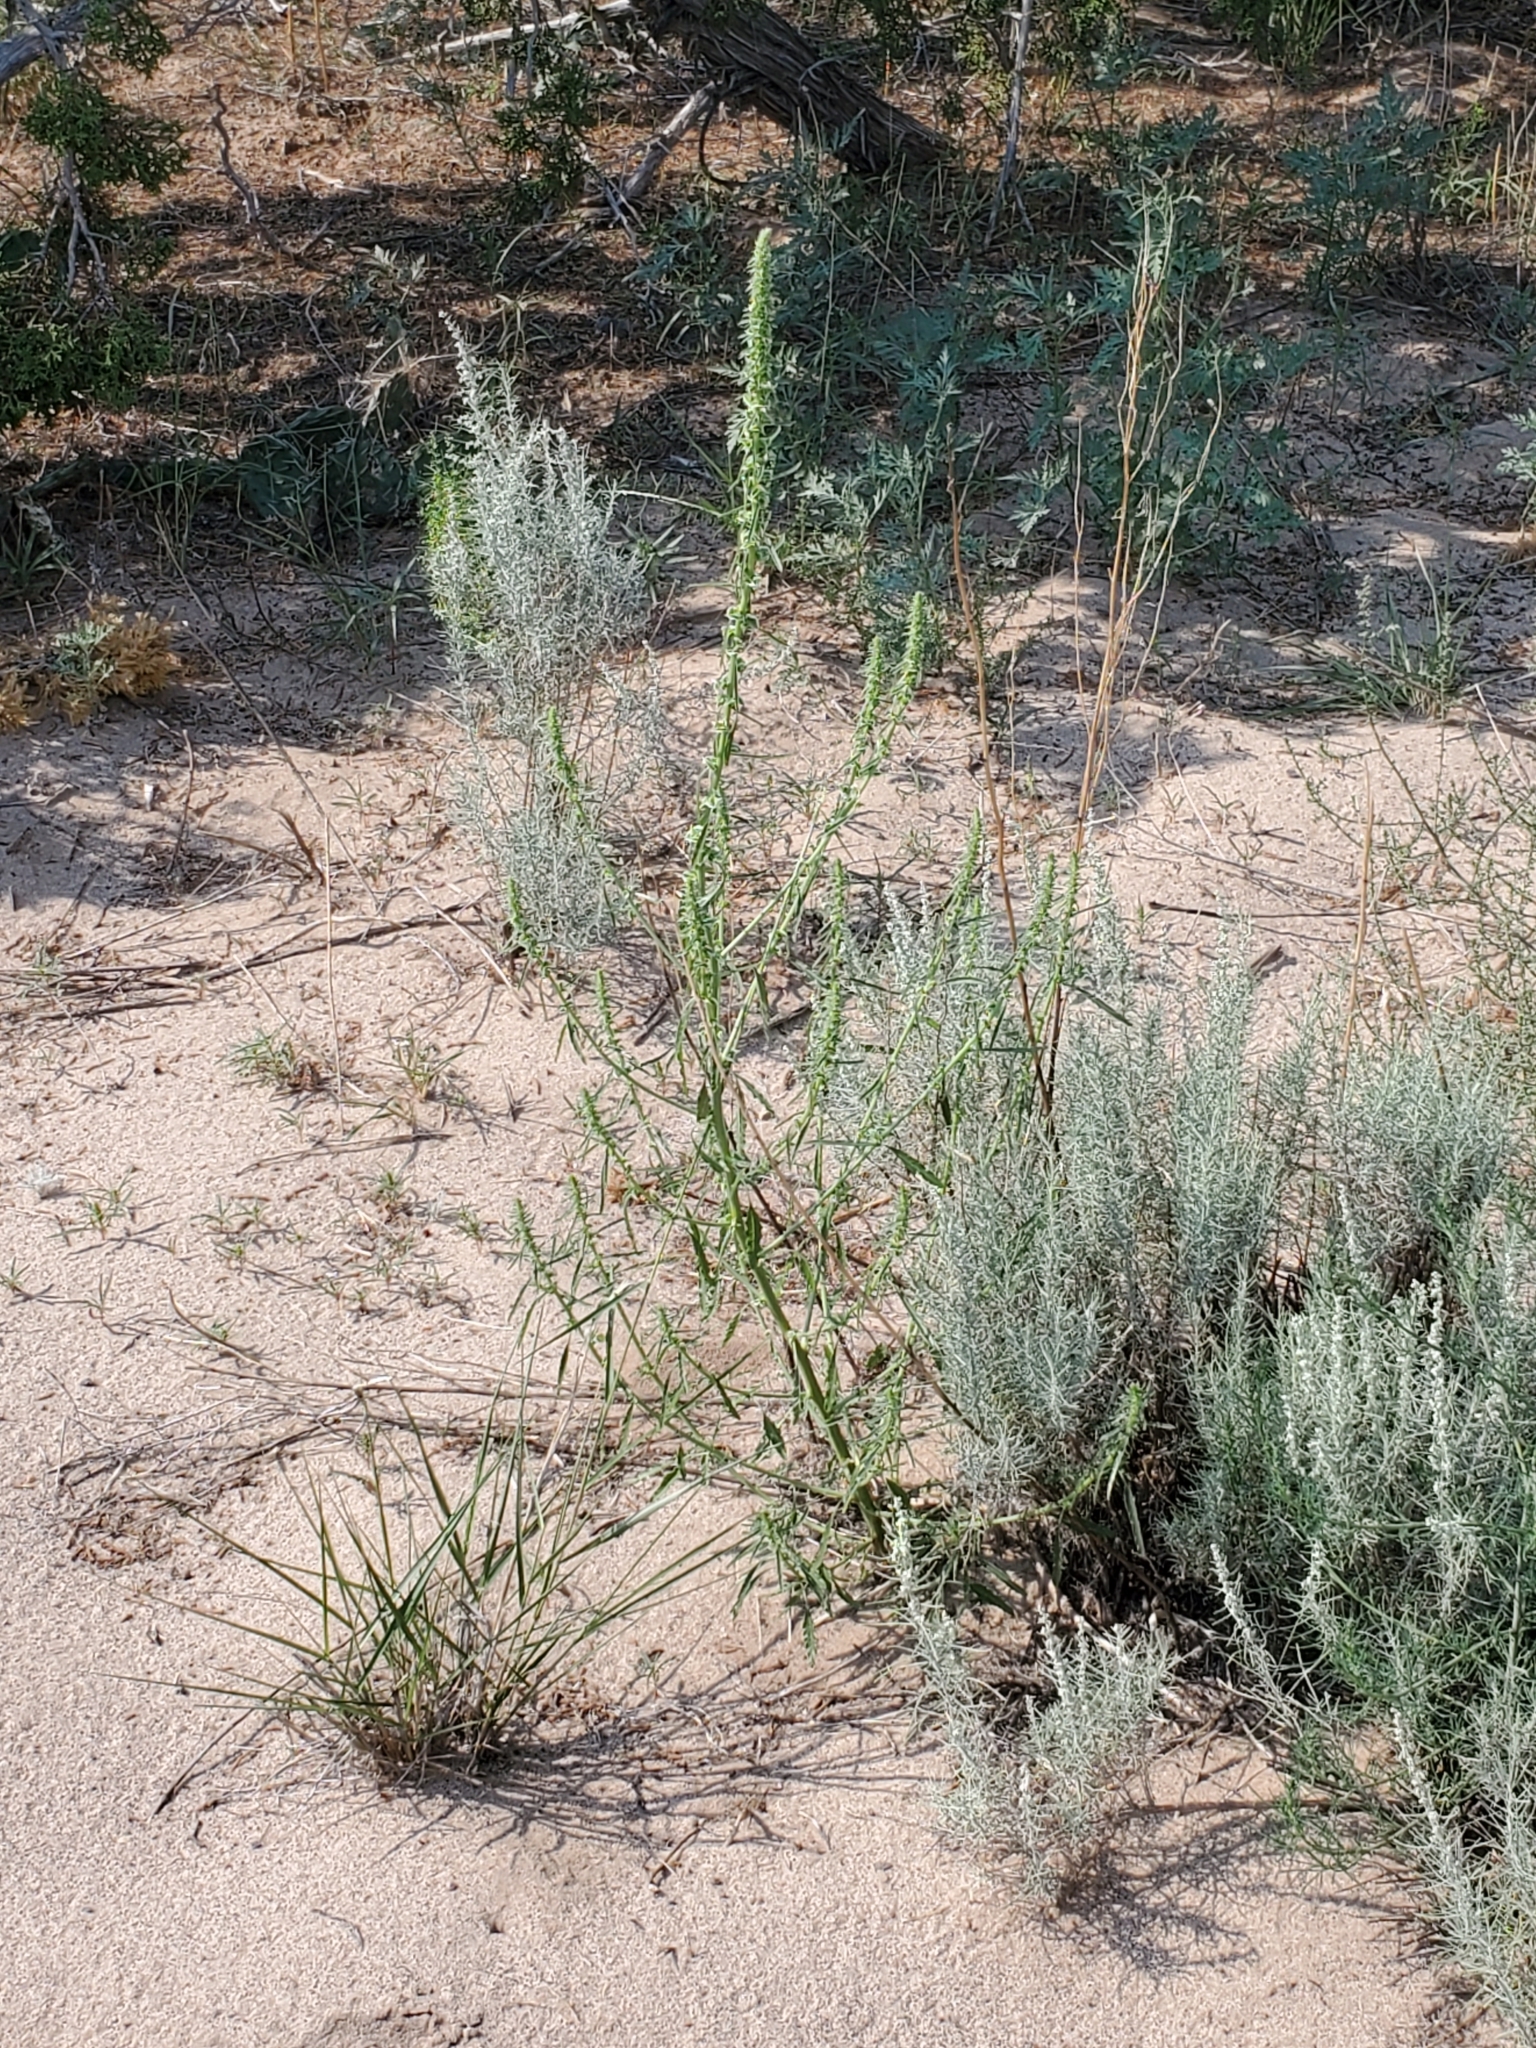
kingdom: Plantae
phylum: Tracheophyta
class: Magnoliopsida
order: Caryophyllales
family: Amaranthaceae
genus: Amaranthus
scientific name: Amaranthus acanthochiton
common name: Greenstripe
